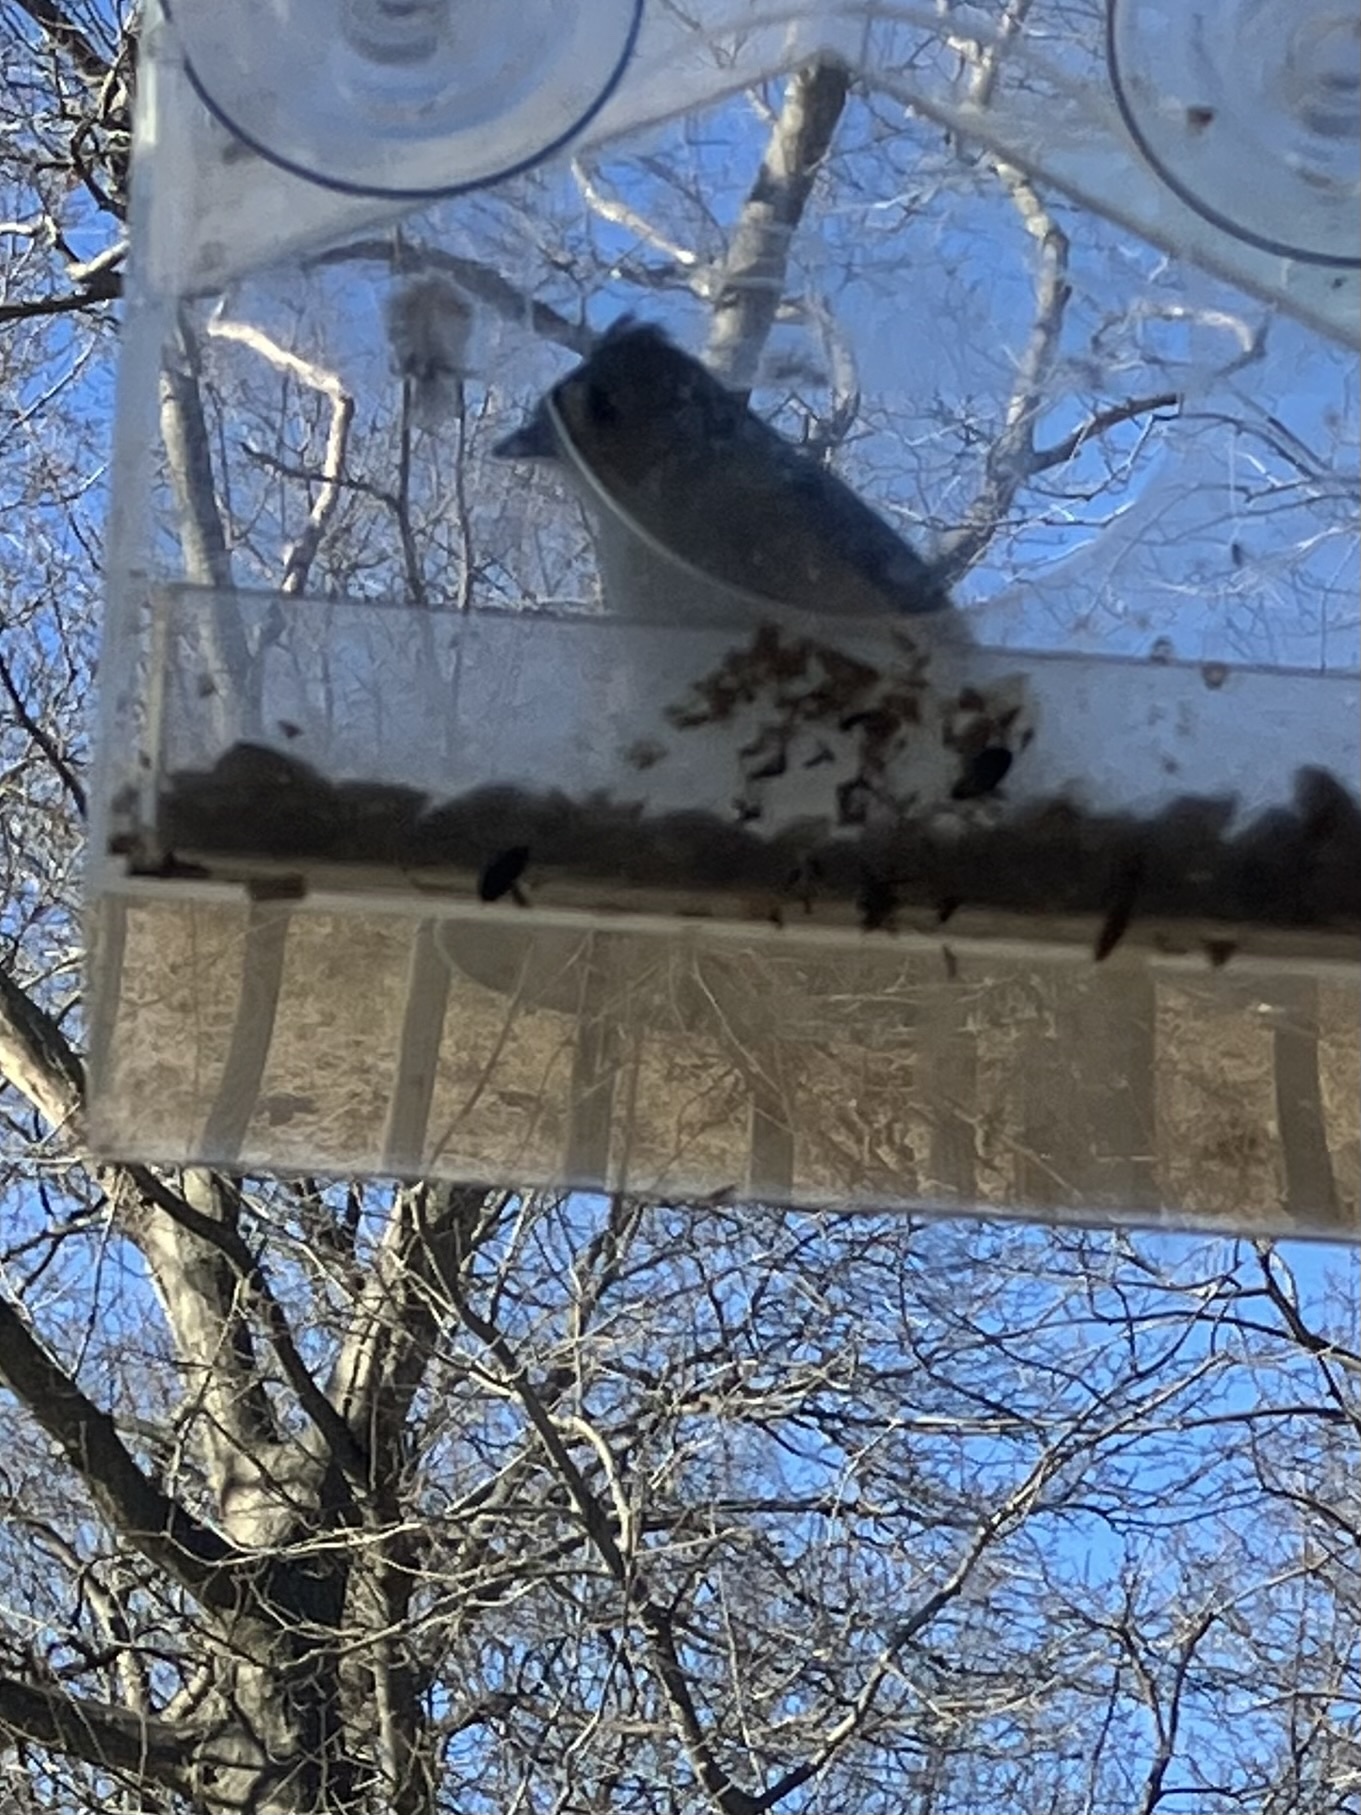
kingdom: Animalia
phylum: Chordata
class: Aves
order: Passeriformes
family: Paridae
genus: Baeolophus
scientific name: Baeolophus bicolor
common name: Tufted titmouse
